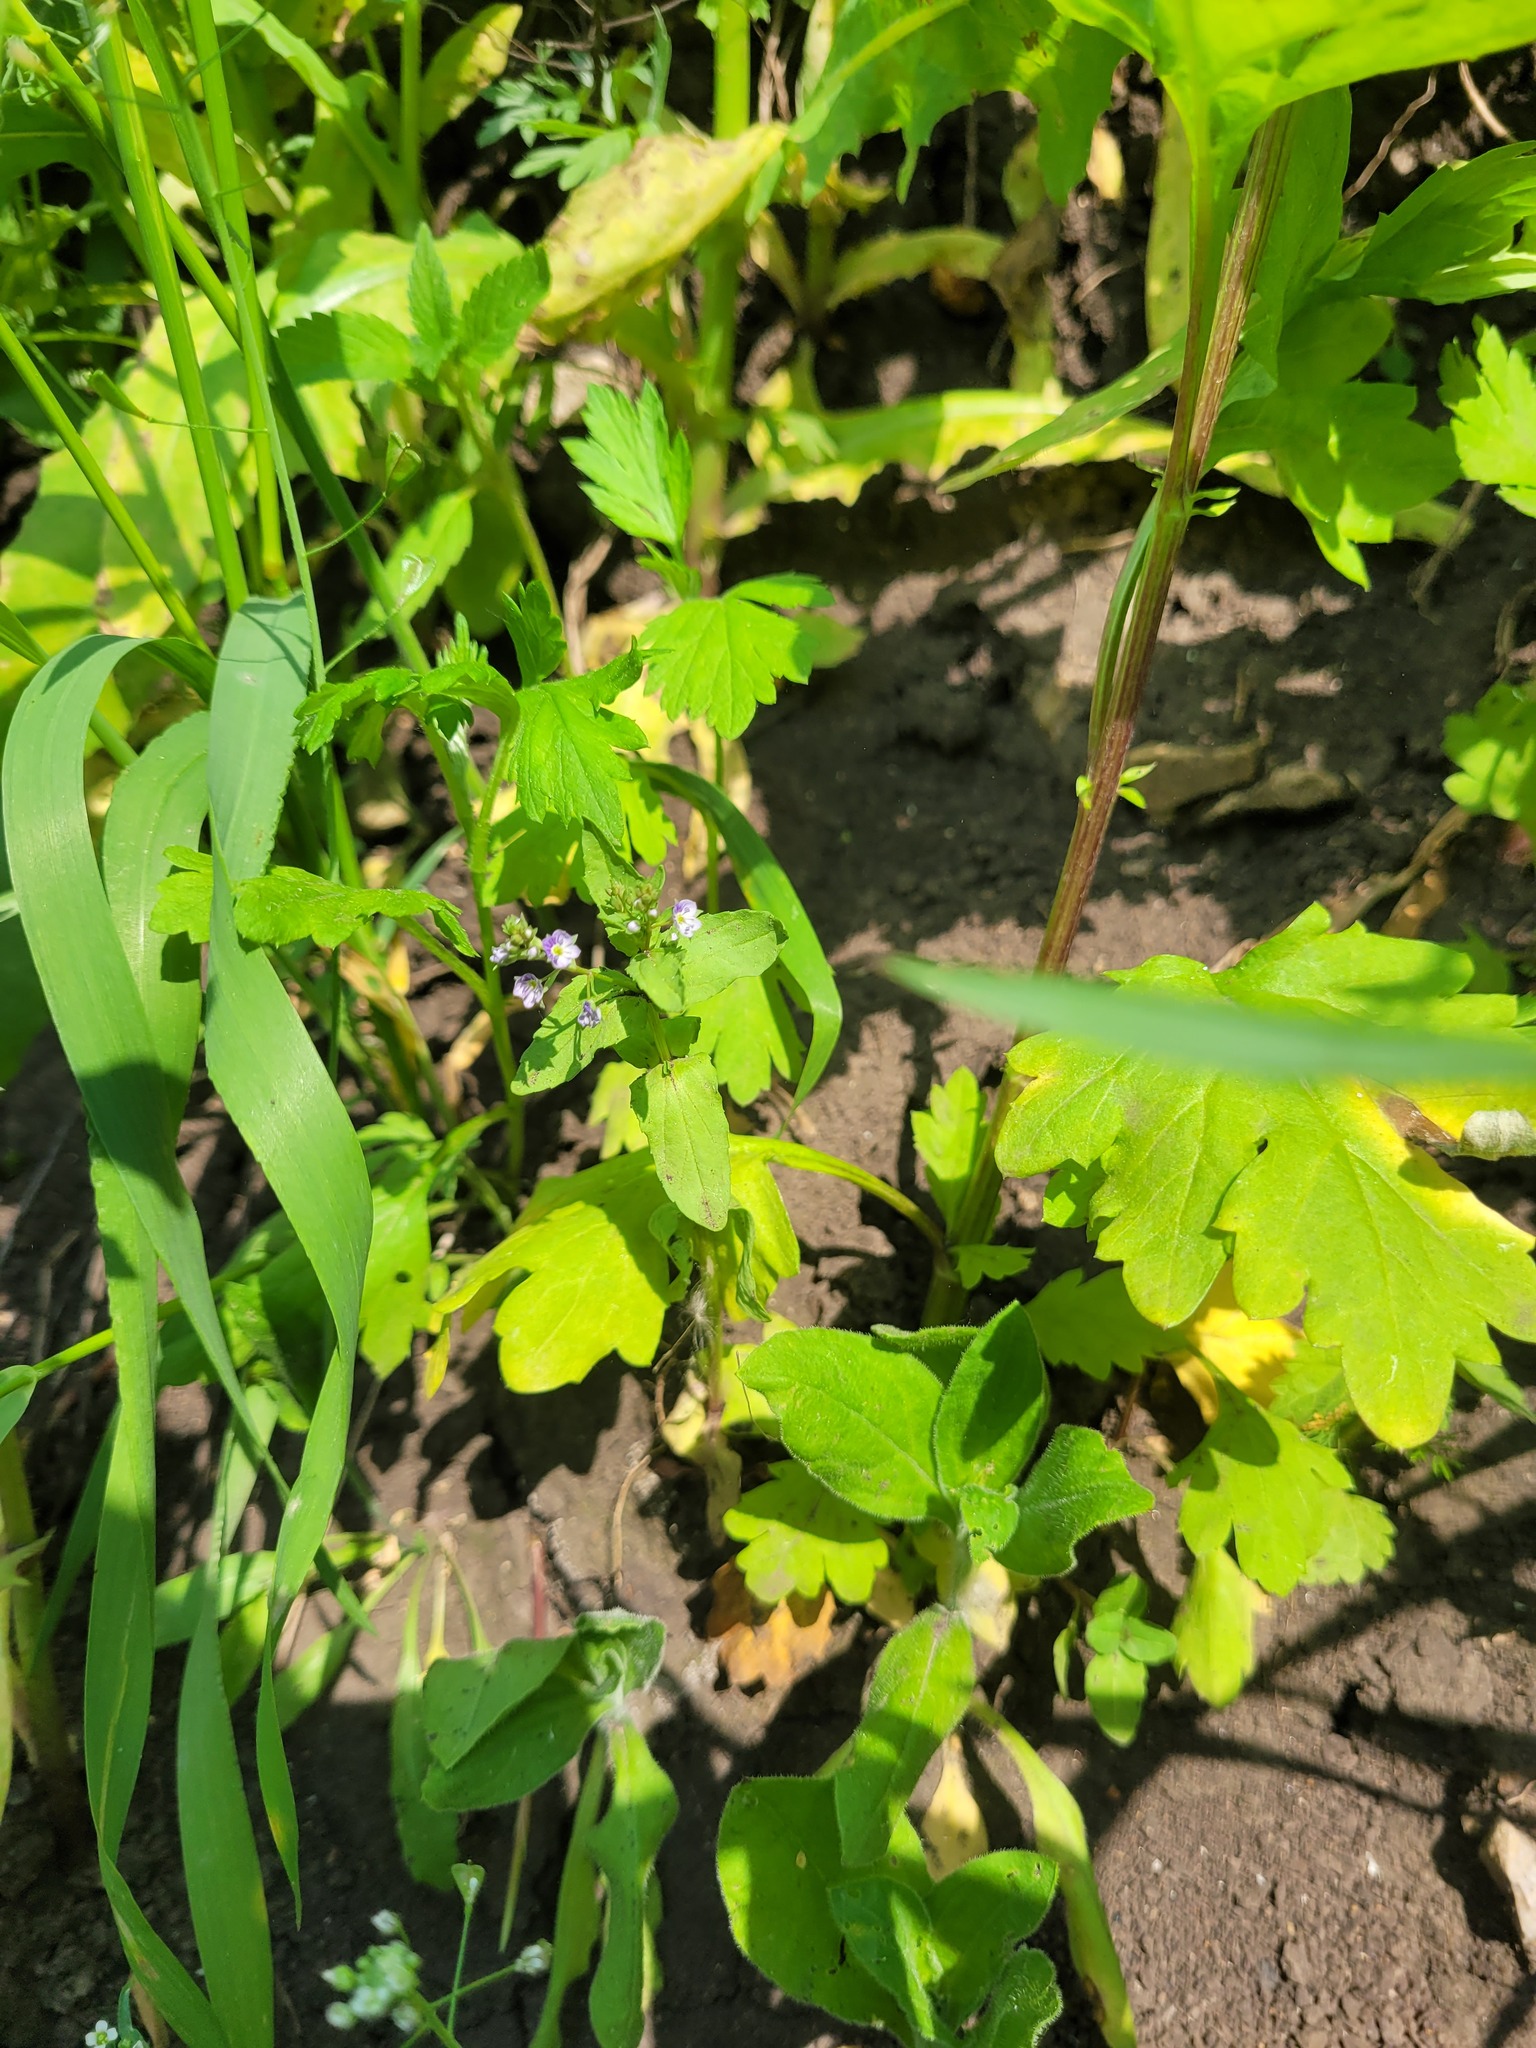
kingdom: Plantae
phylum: Tracheophyta
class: Magnoliopsida
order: Lamiales
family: Plantaginaceae
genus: Veronica
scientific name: Veronica anagallis-aquatica
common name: Water speedwell
